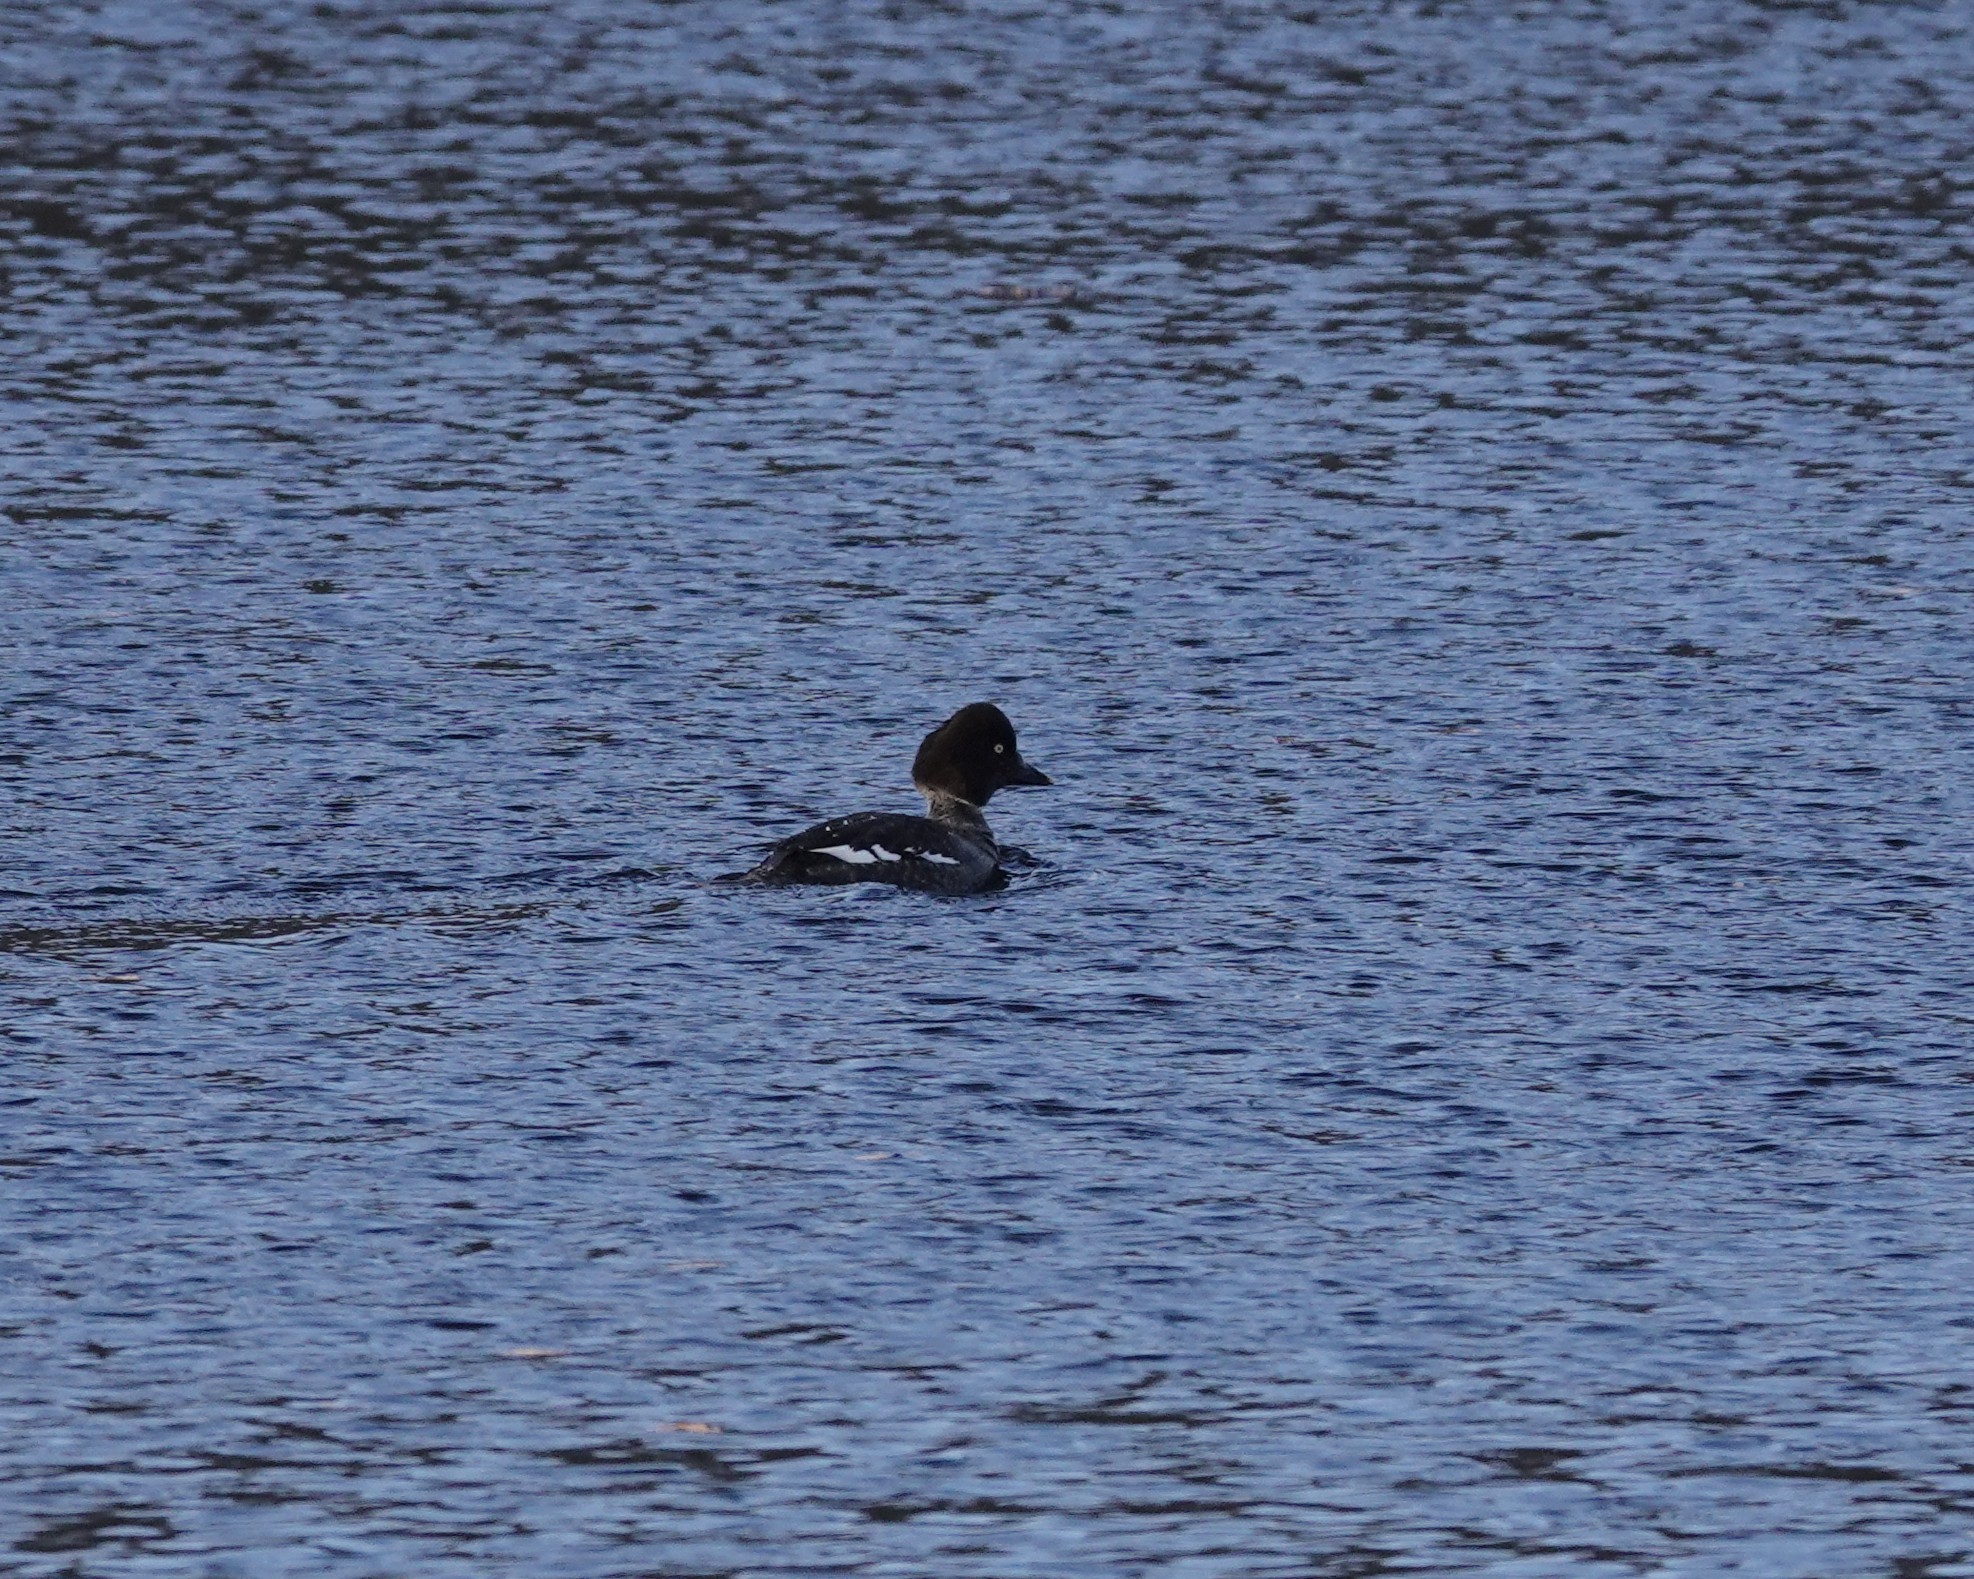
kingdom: Animalia
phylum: Chordata
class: Aves
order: Anseriformes
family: Anatidae
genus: Bucephala
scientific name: Bucephala clangula
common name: Common goldeneye
